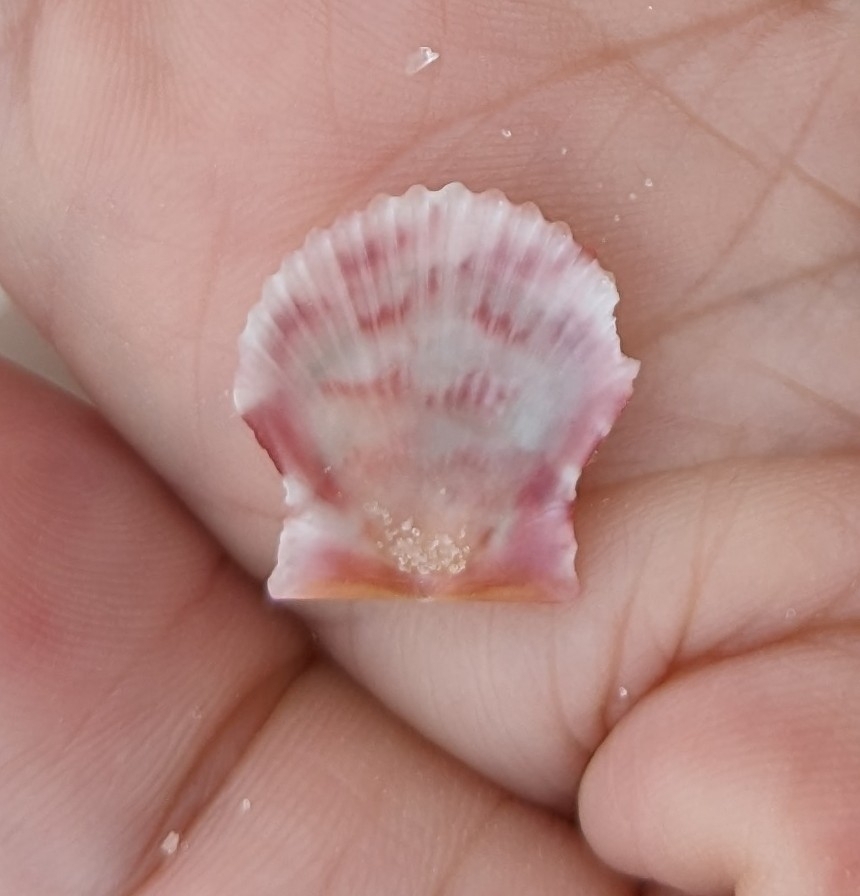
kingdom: Animalia
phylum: Mollusca
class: Bivalvia
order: Pectinida
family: Pectinidae
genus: Argopecten
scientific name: Argopecten gibbus
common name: Atlantic calico scallop
